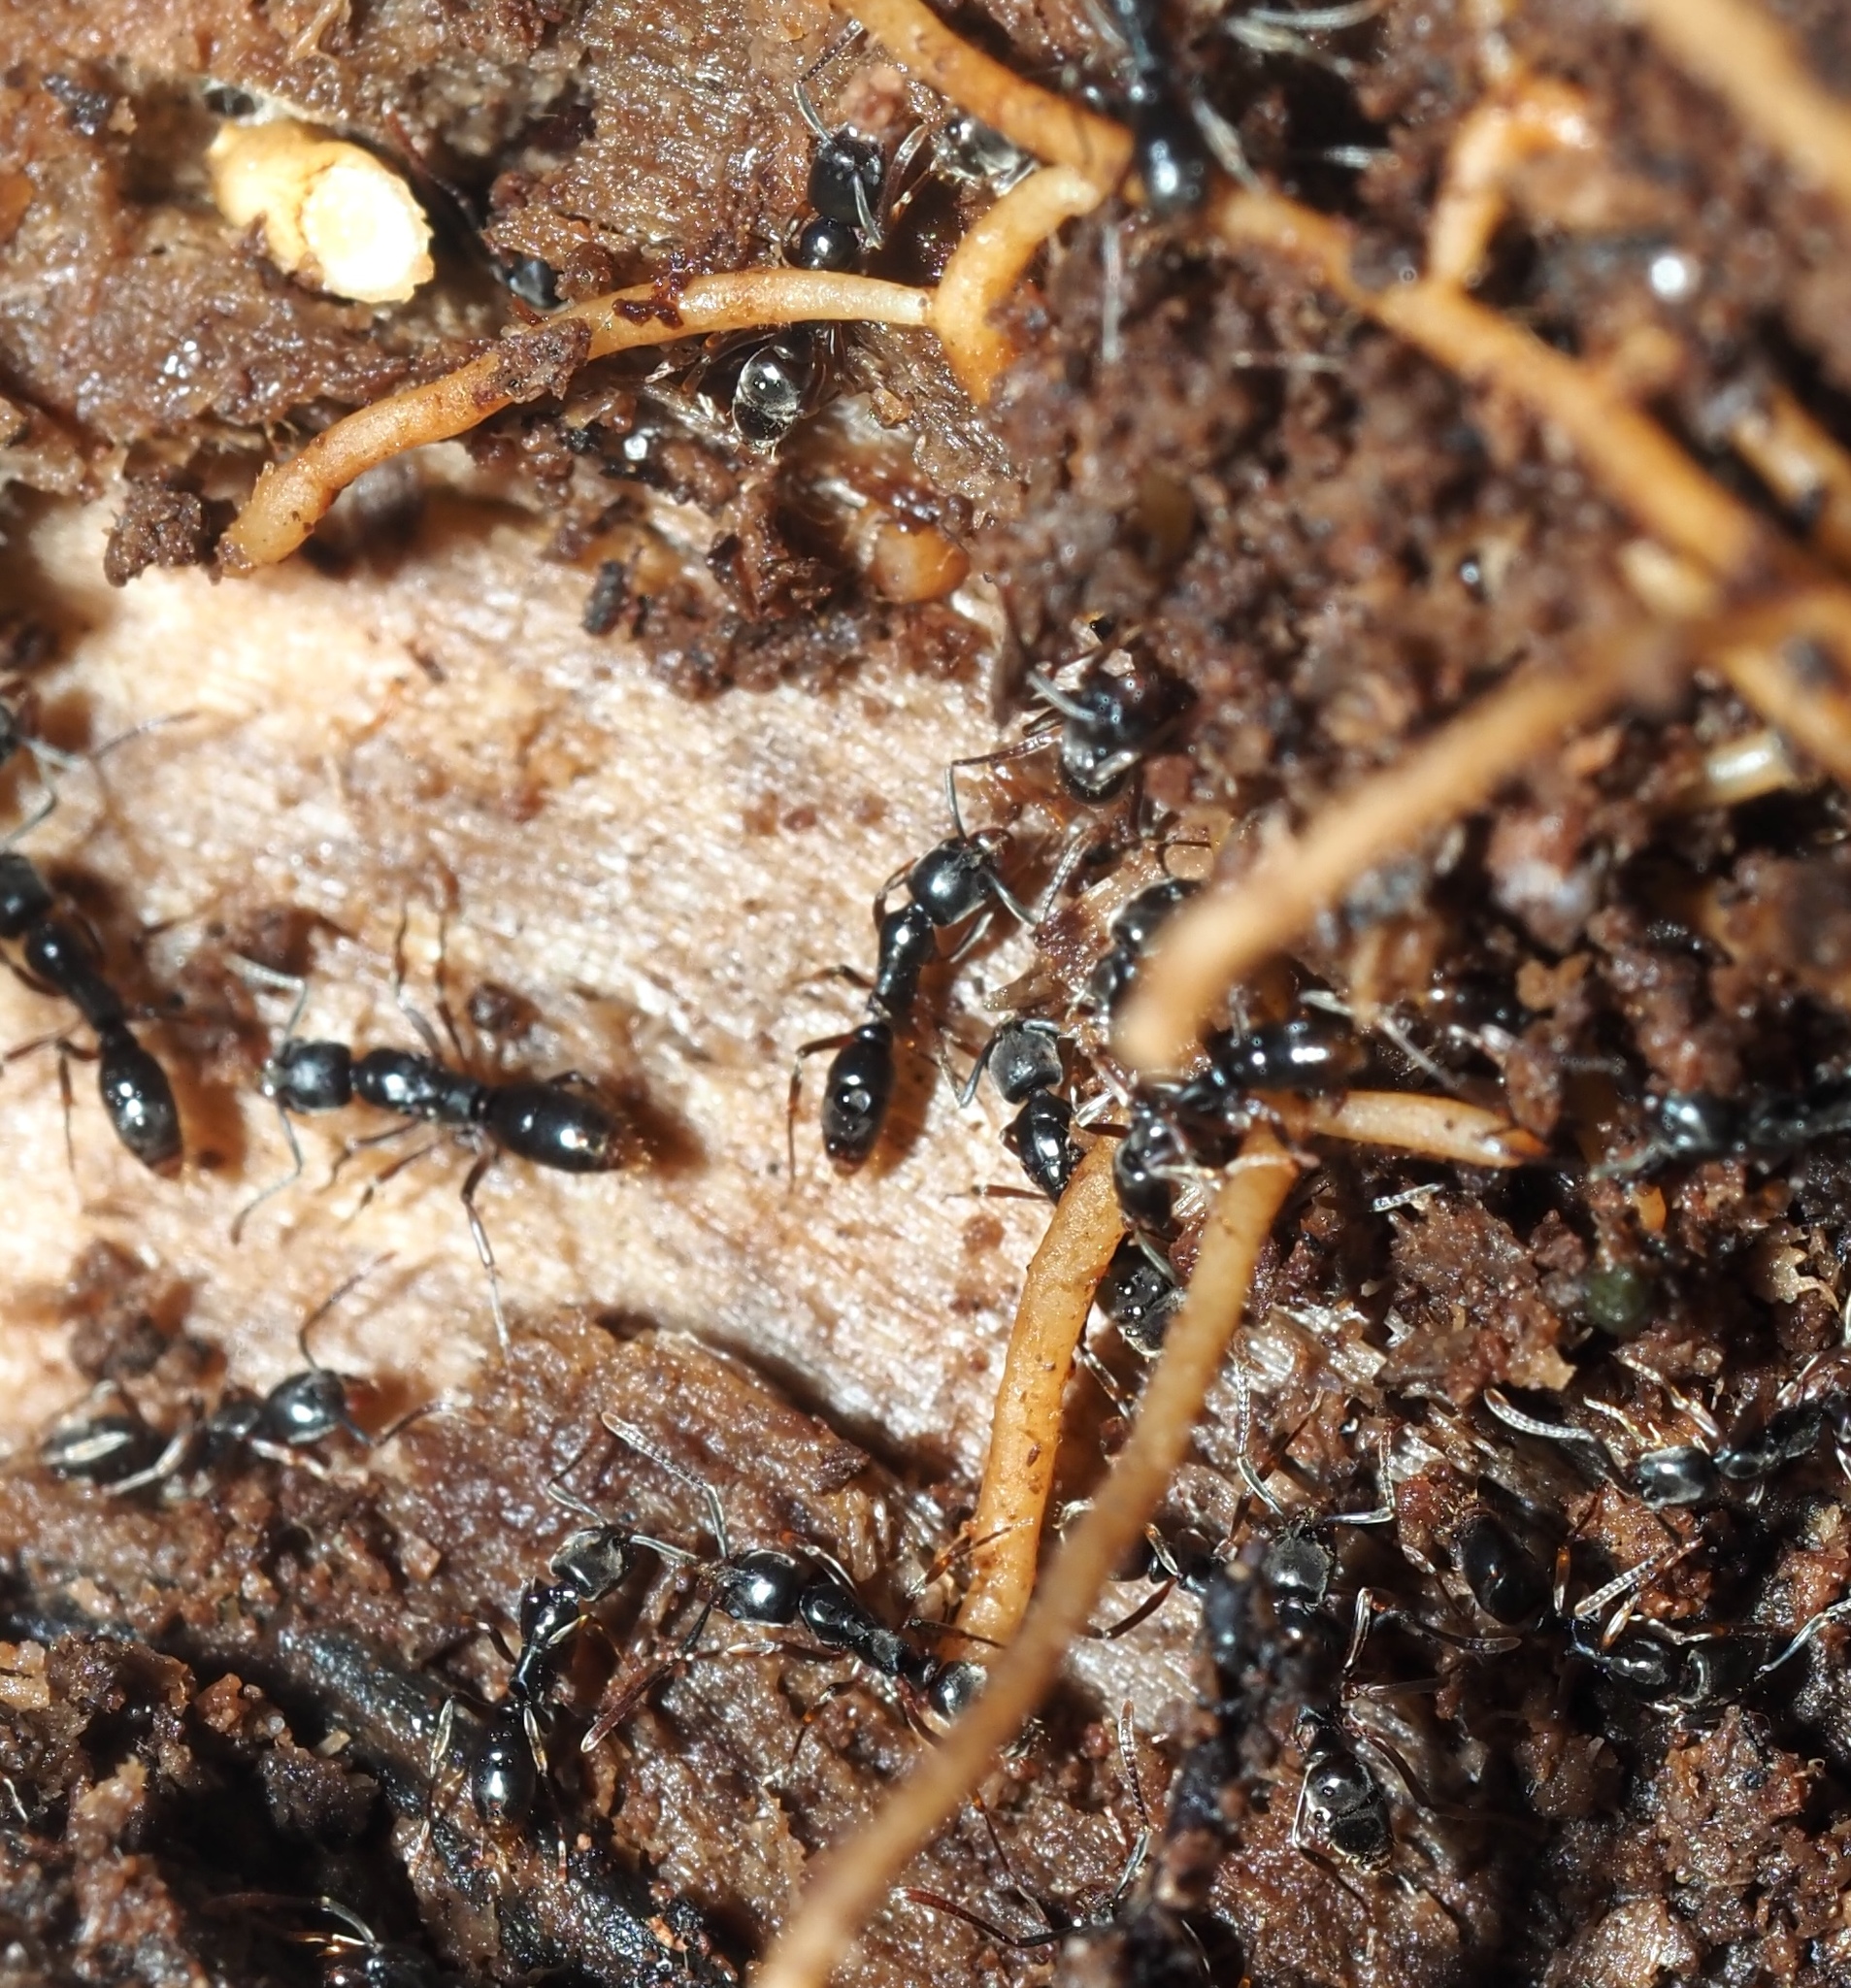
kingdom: Animalia
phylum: Arthropoda
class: Insecta
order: Hymenoptera
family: Formicidae
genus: Pachycondyla
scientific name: Pachycondyla chinensis
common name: Asian needle ant
